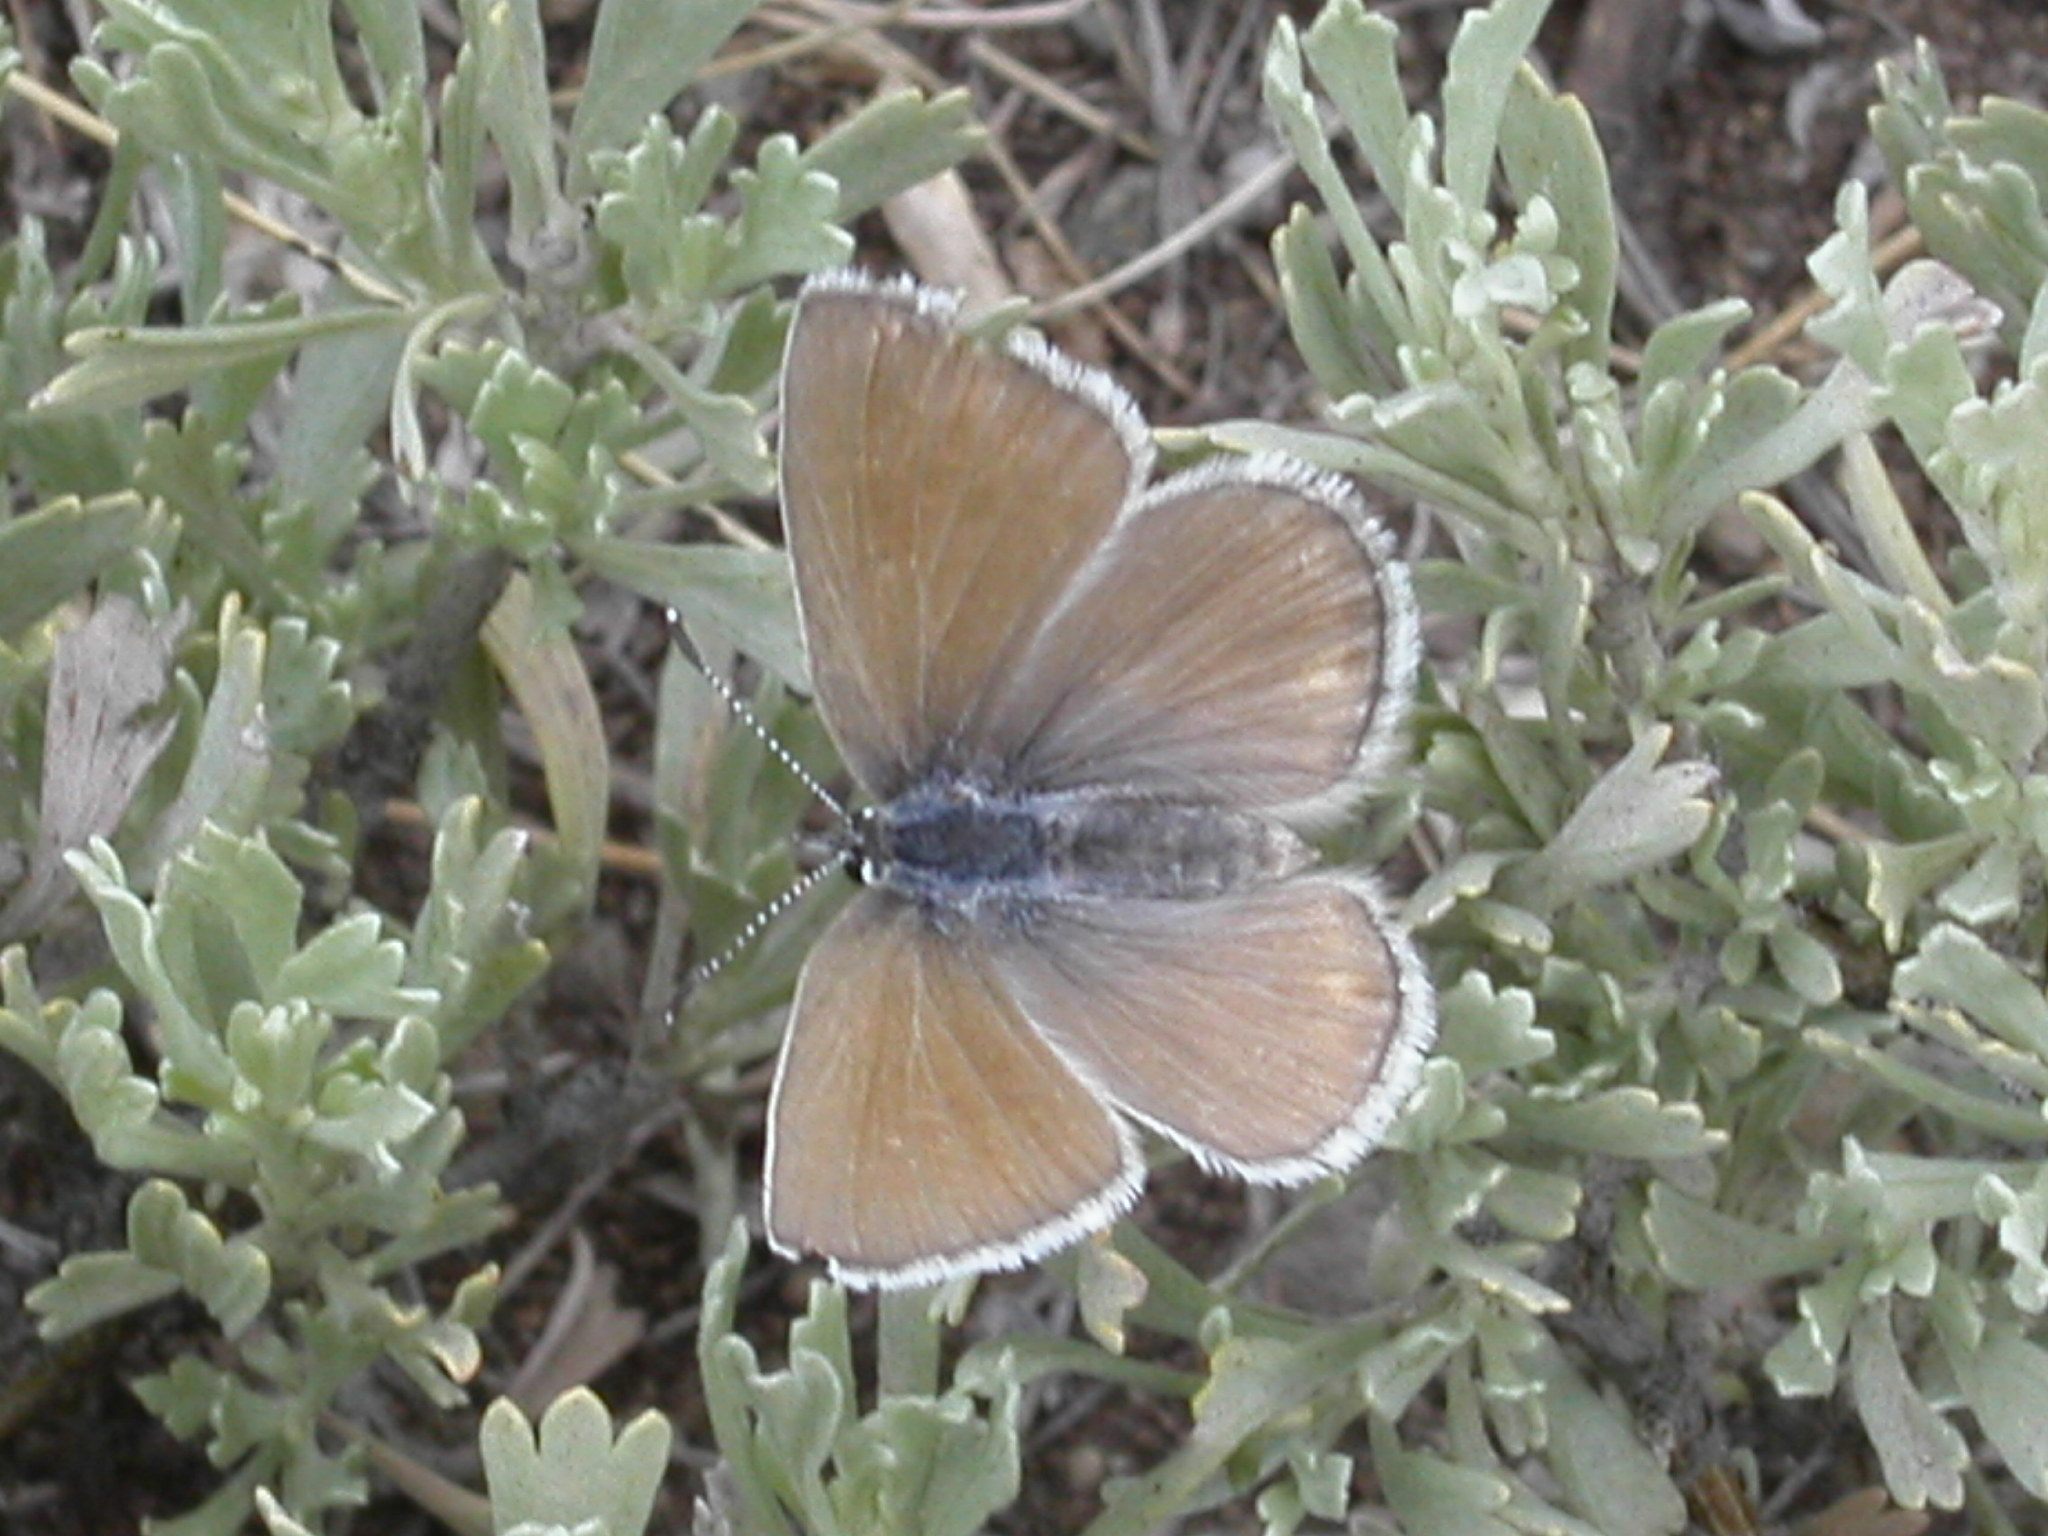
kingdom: Animalia
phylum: Arthropoda
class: Insecta
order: Lepidoptera
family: Lycaenidae
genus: Icaricia
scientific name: Icaricia icarioides
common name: Boisduval's blue
